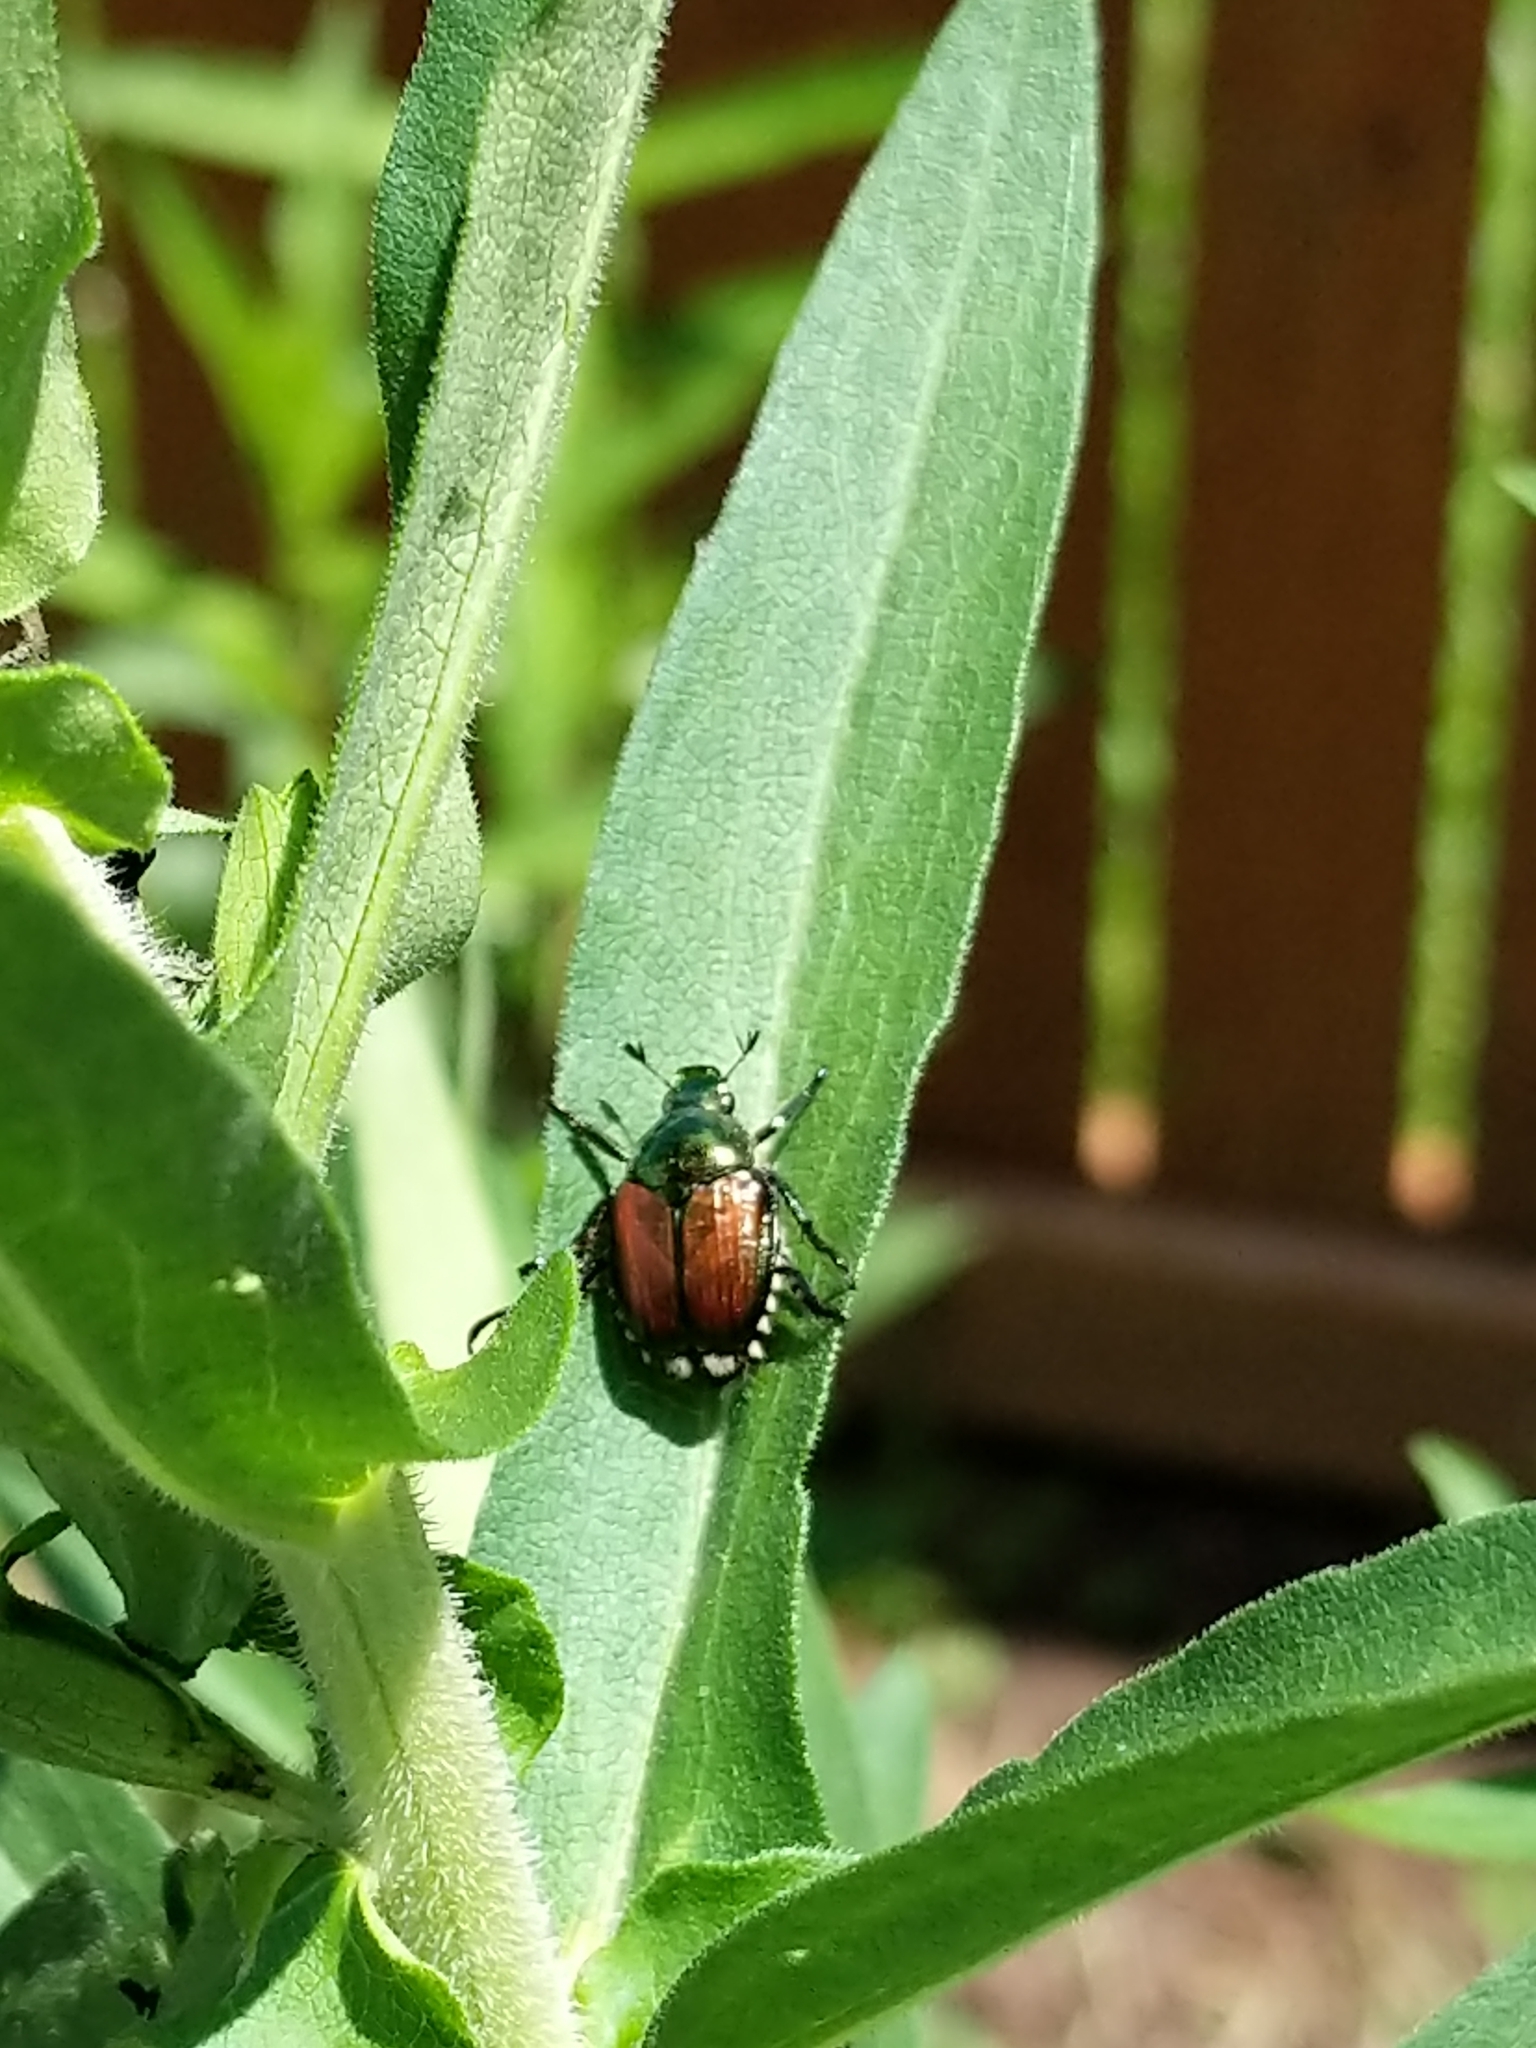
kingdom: Animalia
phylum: Arthropoda
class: Insecta
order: Coleoptera
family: Scarabaeidae
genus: Popillia
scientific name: Popillia japonica
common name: Japanese beetle
